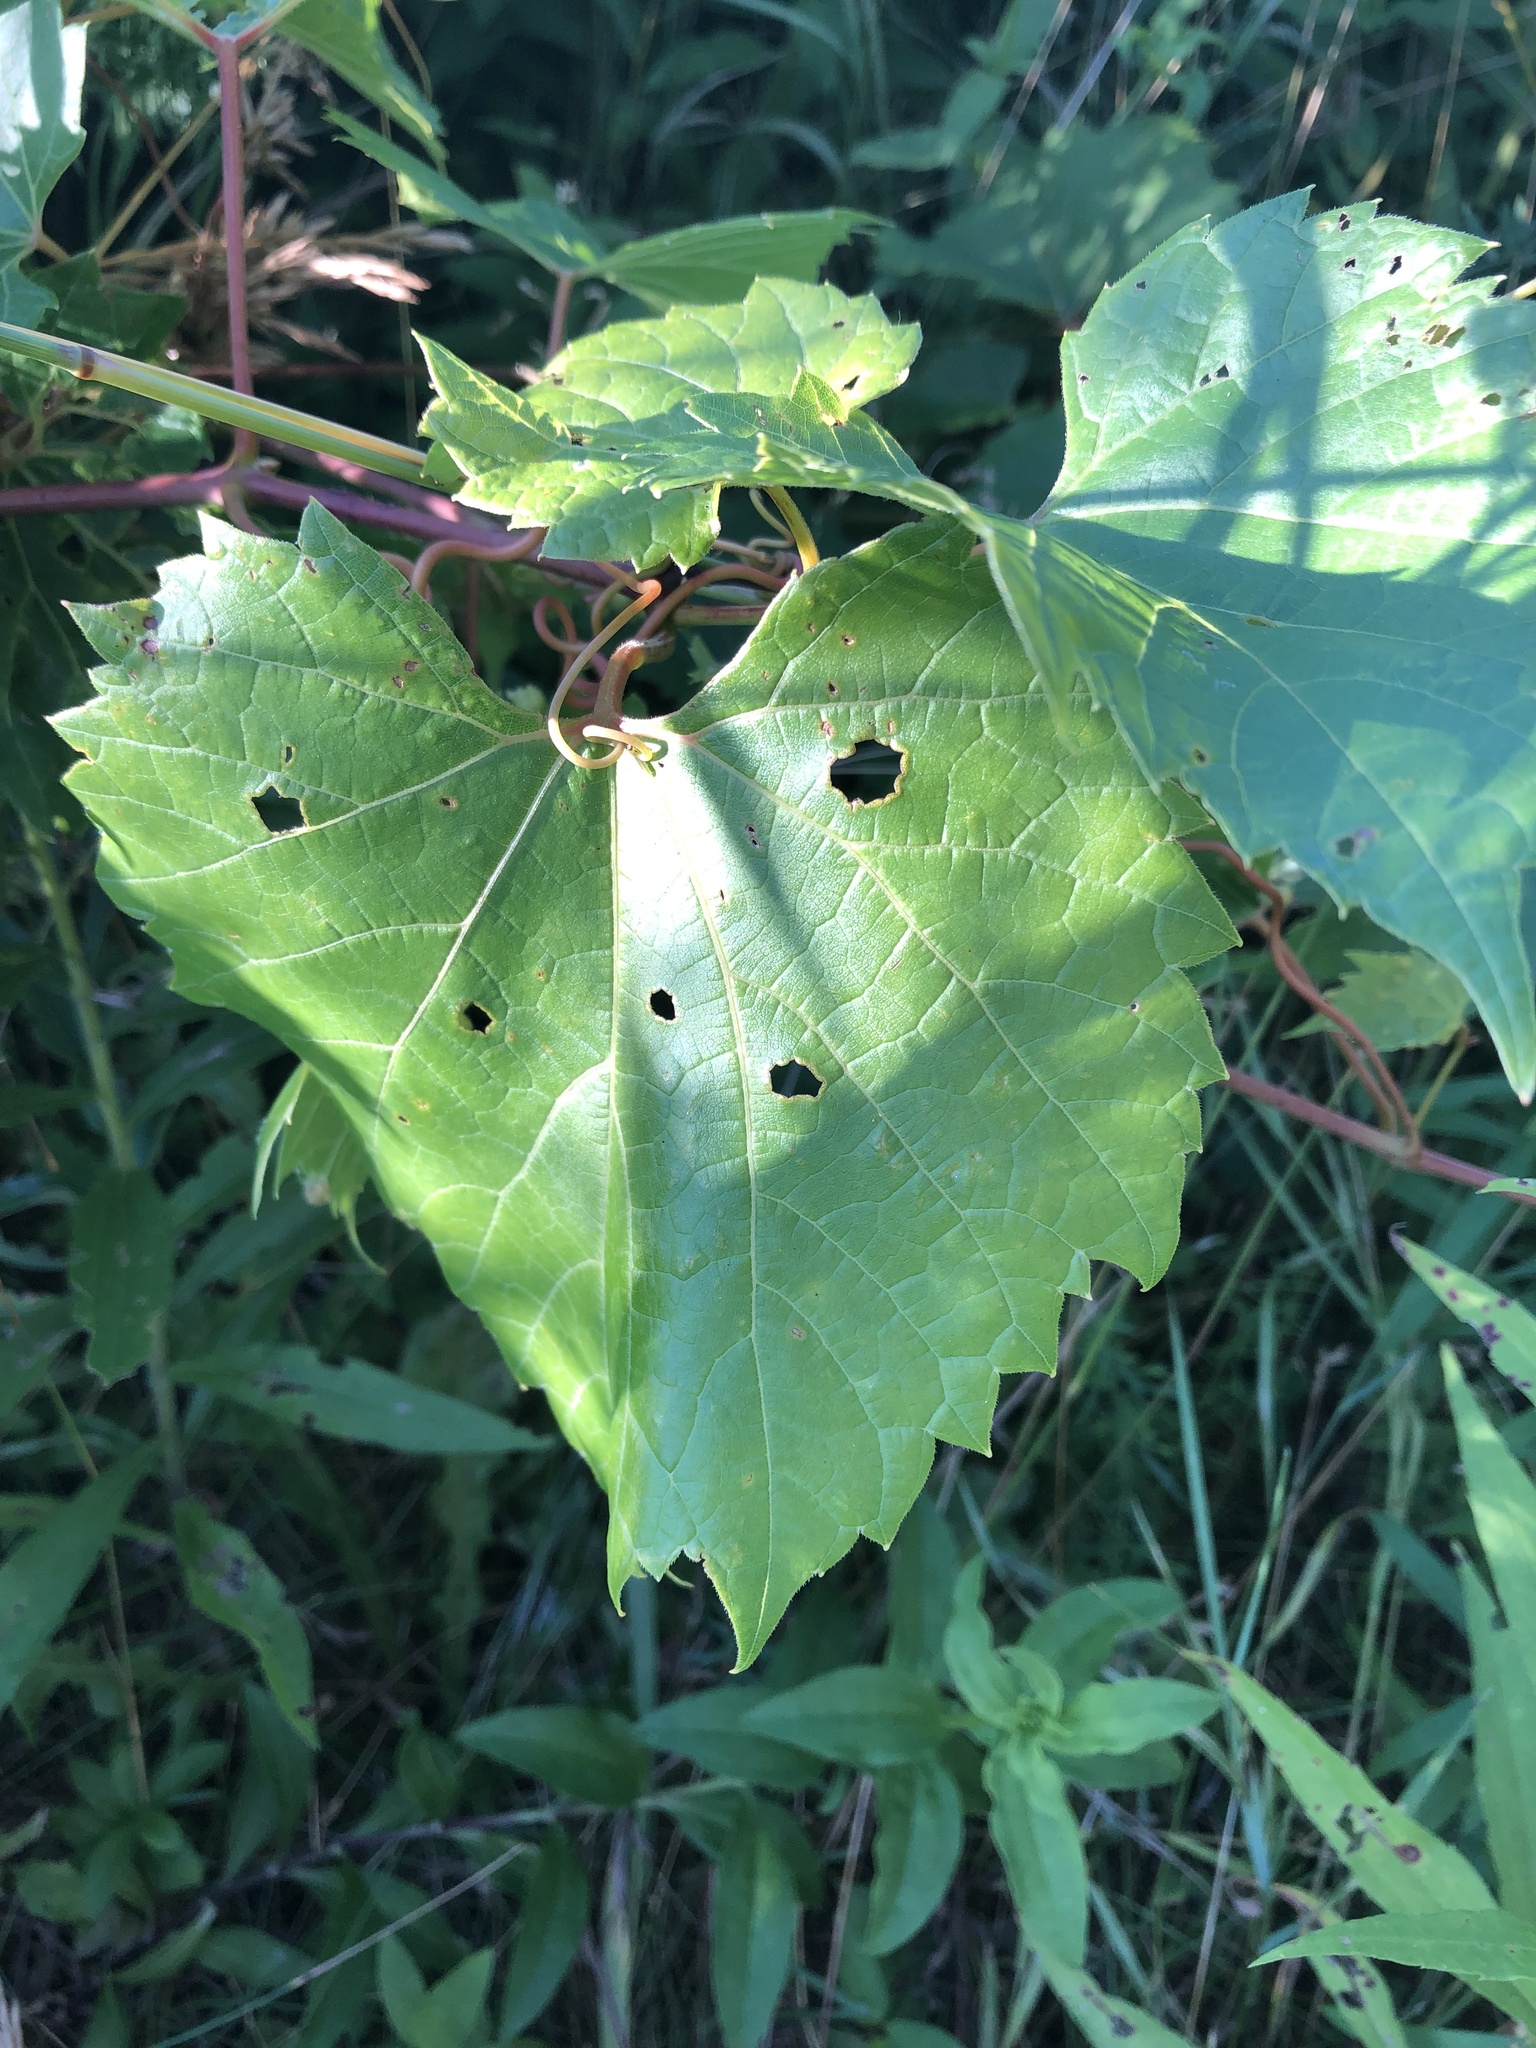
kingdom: Plantae
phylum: Tracheophyta
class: Magnoliopsida
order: Vitales
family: Vitaceae
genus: Vitis
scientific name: Vitis riparia
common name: Frost grape
